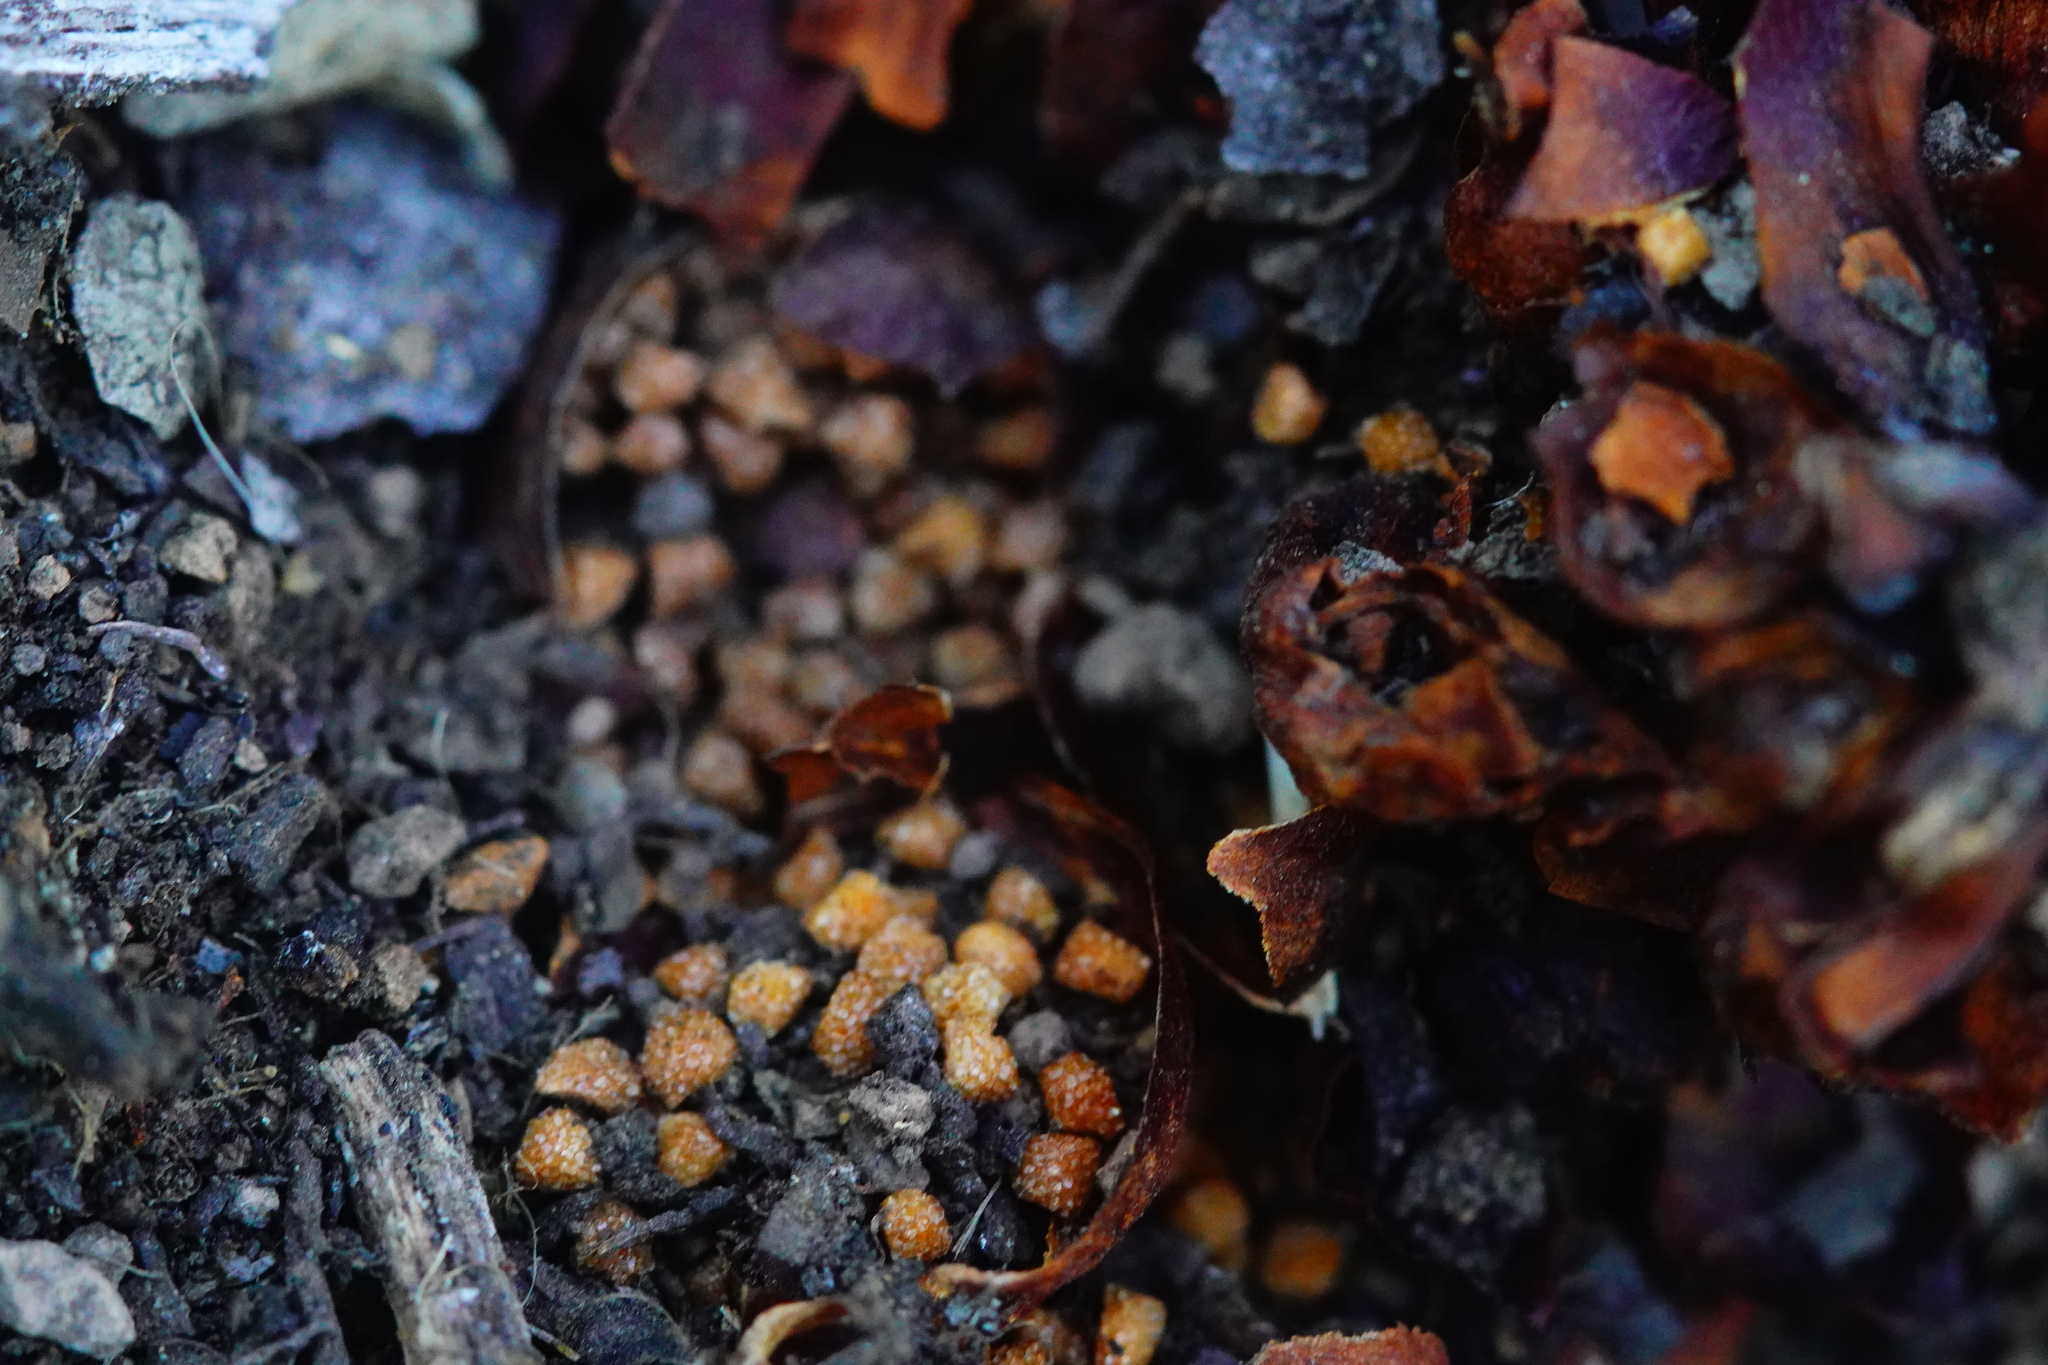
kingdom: Plantae
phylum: Tracheophyta
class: Magnoliopsida
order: Lamiales
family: Orobanchaceae
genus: Kopsiopsis
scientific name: Kopsiopsis strobilacea
